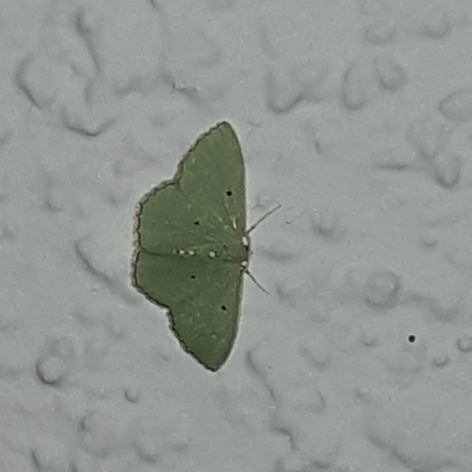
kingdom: Animalia
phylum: Arthropoda
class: Insecta
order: Lepidoptera
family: Geometridae
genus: Nemoria
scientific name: Nemoria lixaria
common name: Red-bordered emerald
